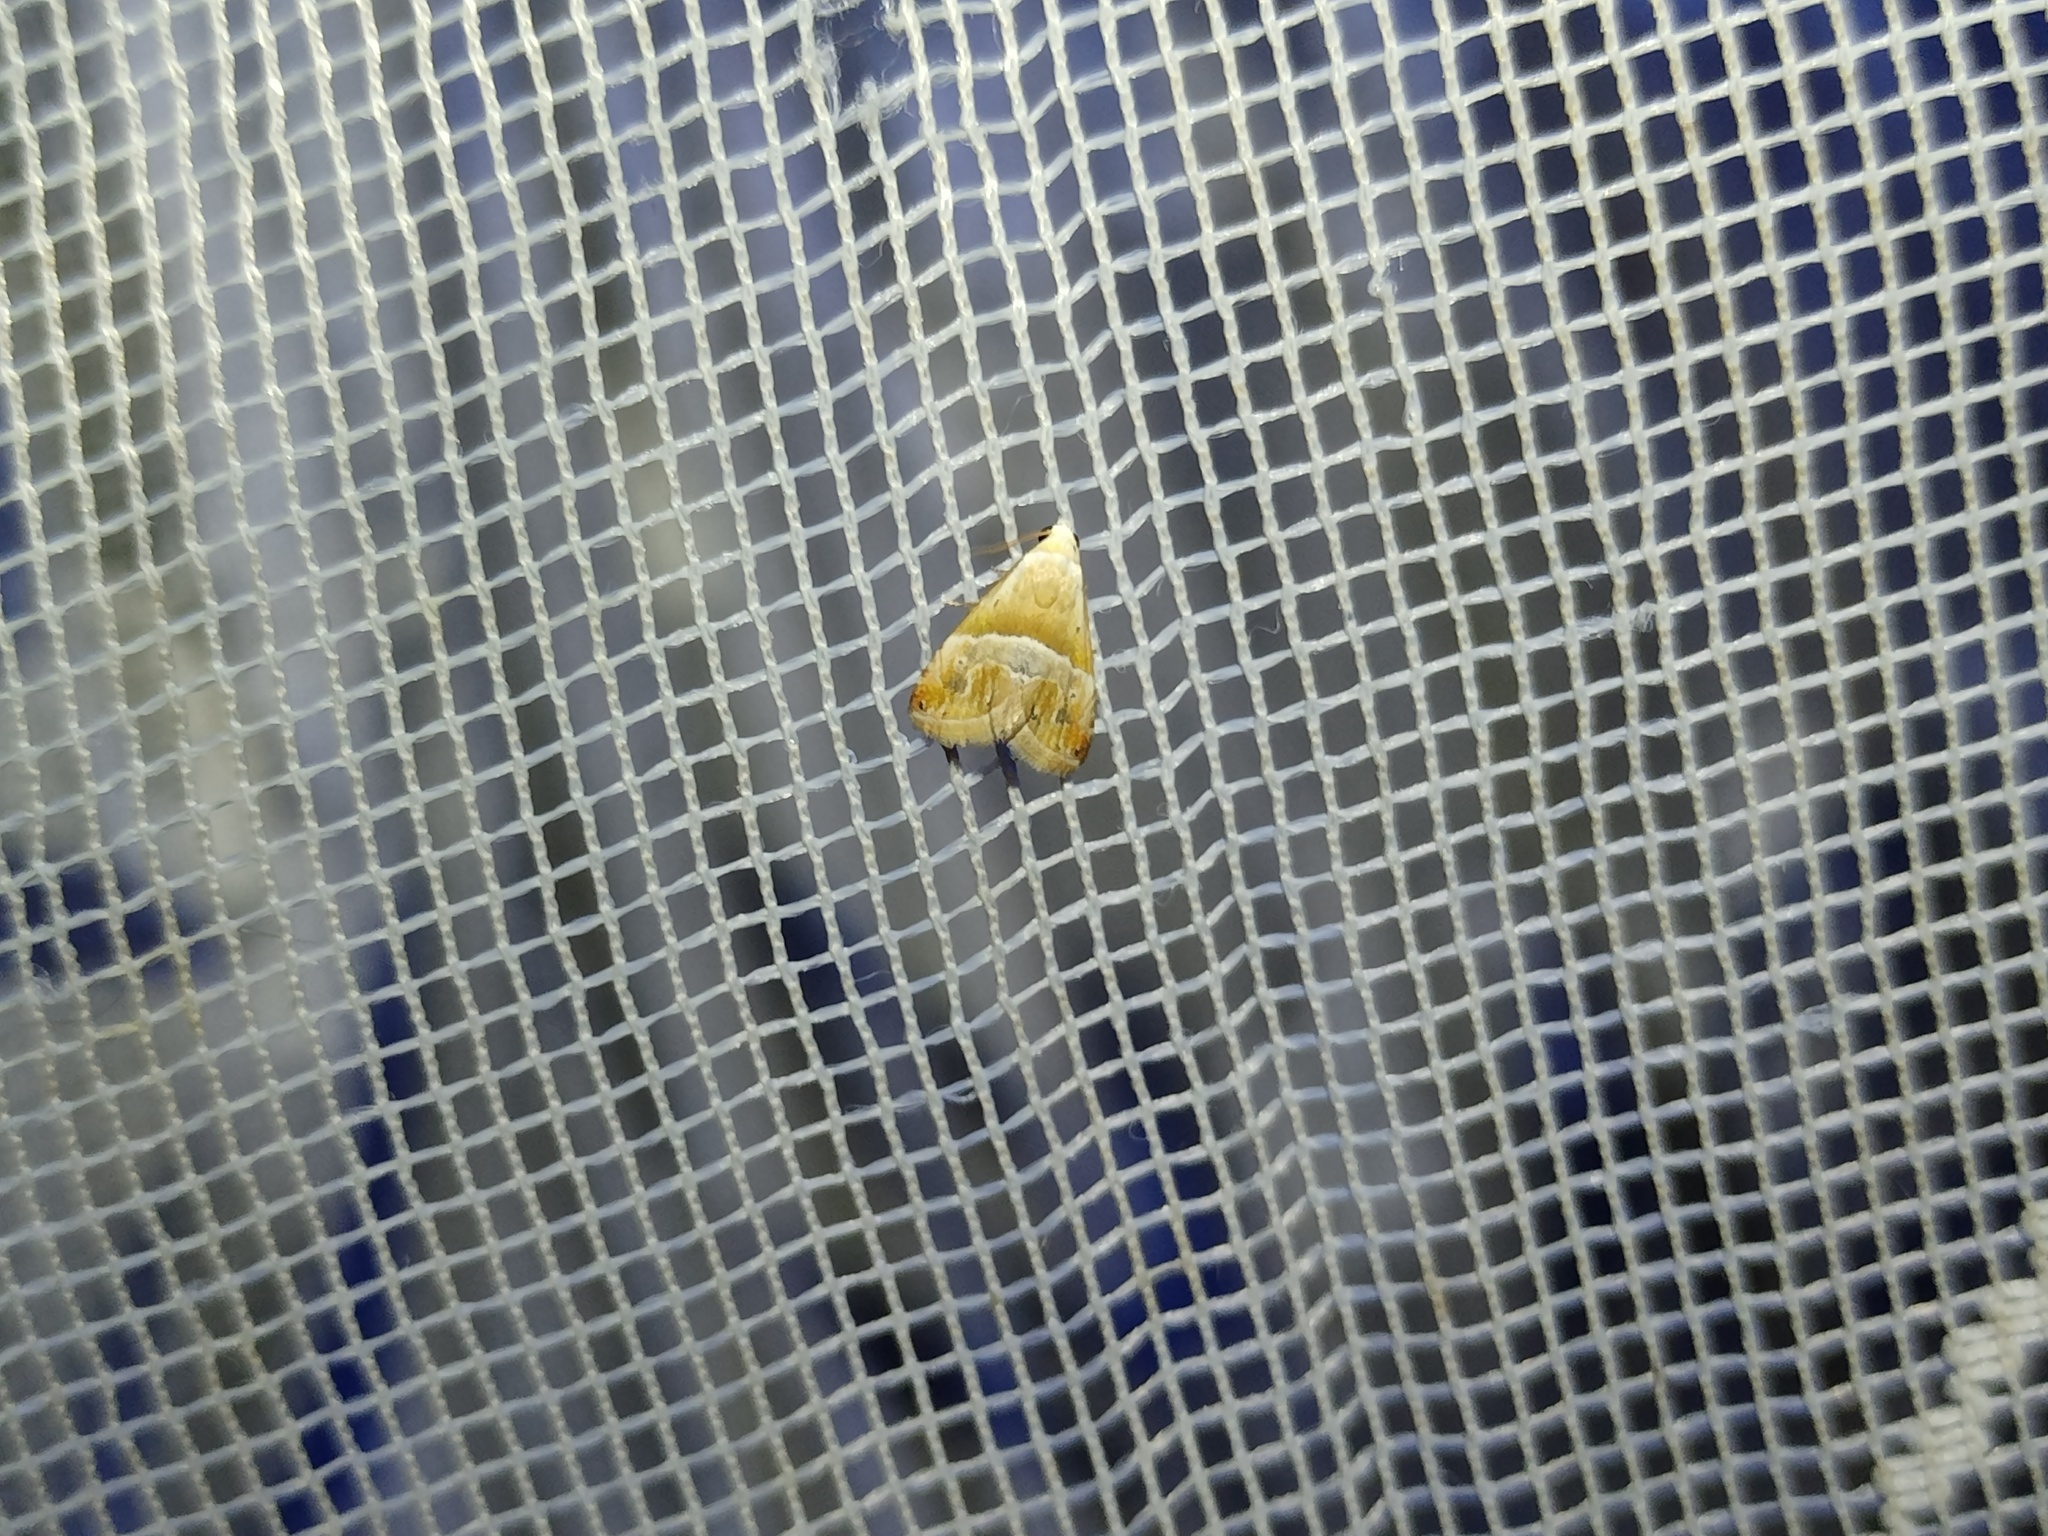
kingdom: Animalia
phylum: Arthropoda
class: Insecta
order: Lepidoptera
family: Noctuidae
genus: Eublemma
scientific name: Eublemma parva
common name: Small marbled
